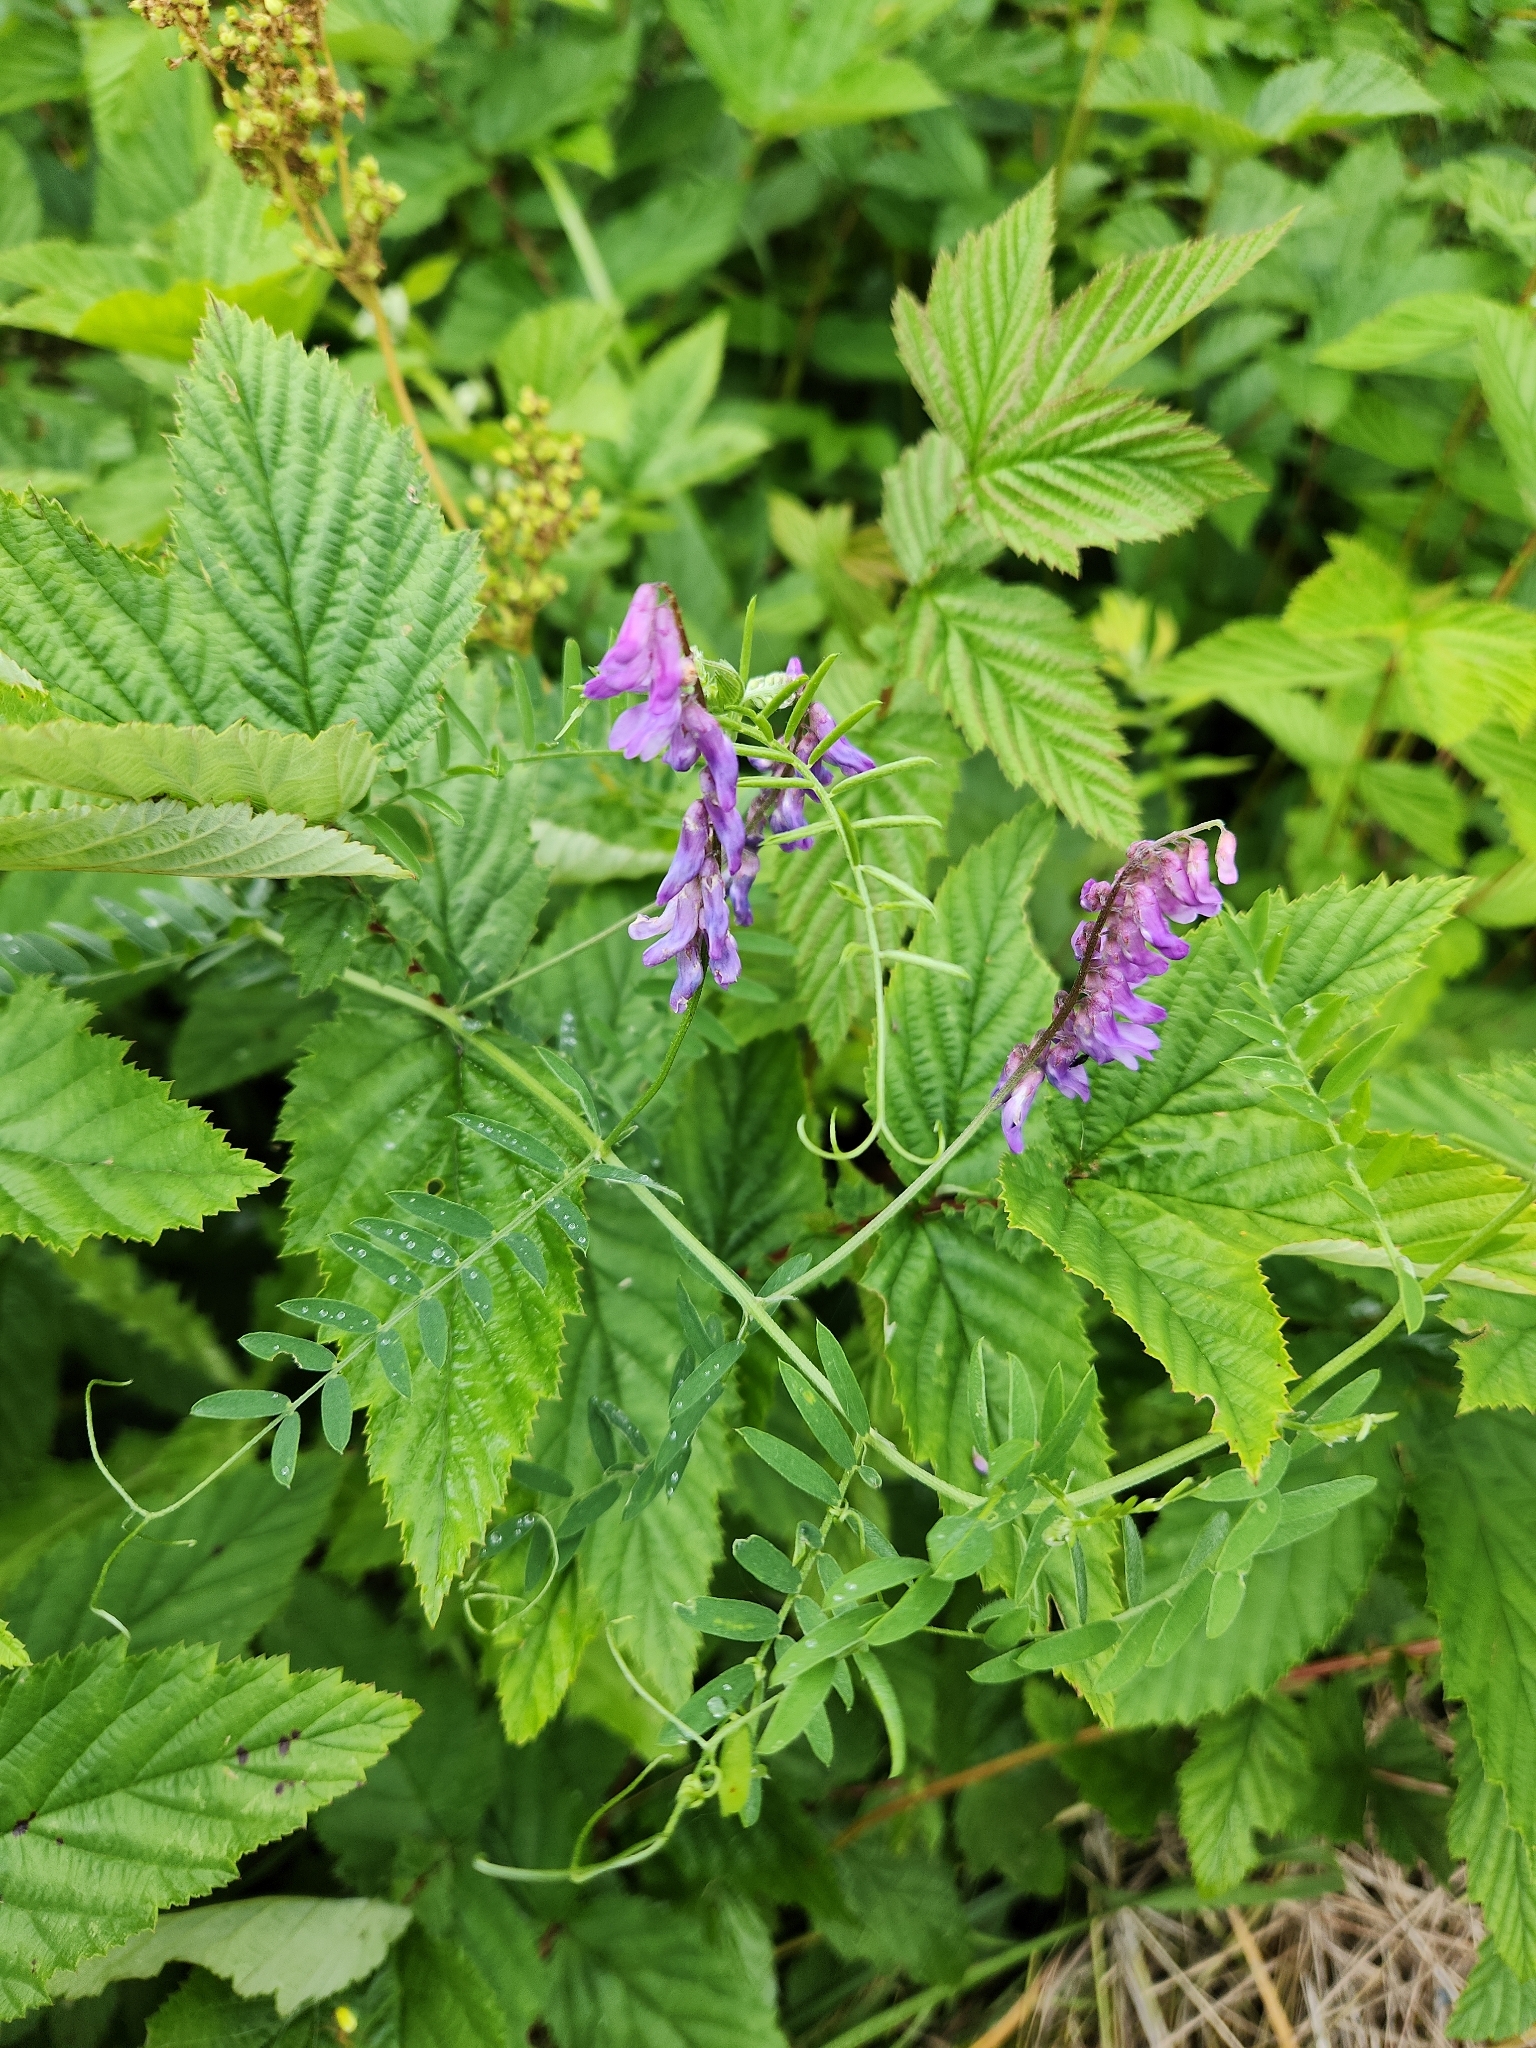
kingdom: Plantae
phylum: Tracheophyta
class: Magnoliopsida
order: Fabales
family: Fabaceae
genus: Vicia
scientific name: Vicia cracca
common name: Bird vetch
